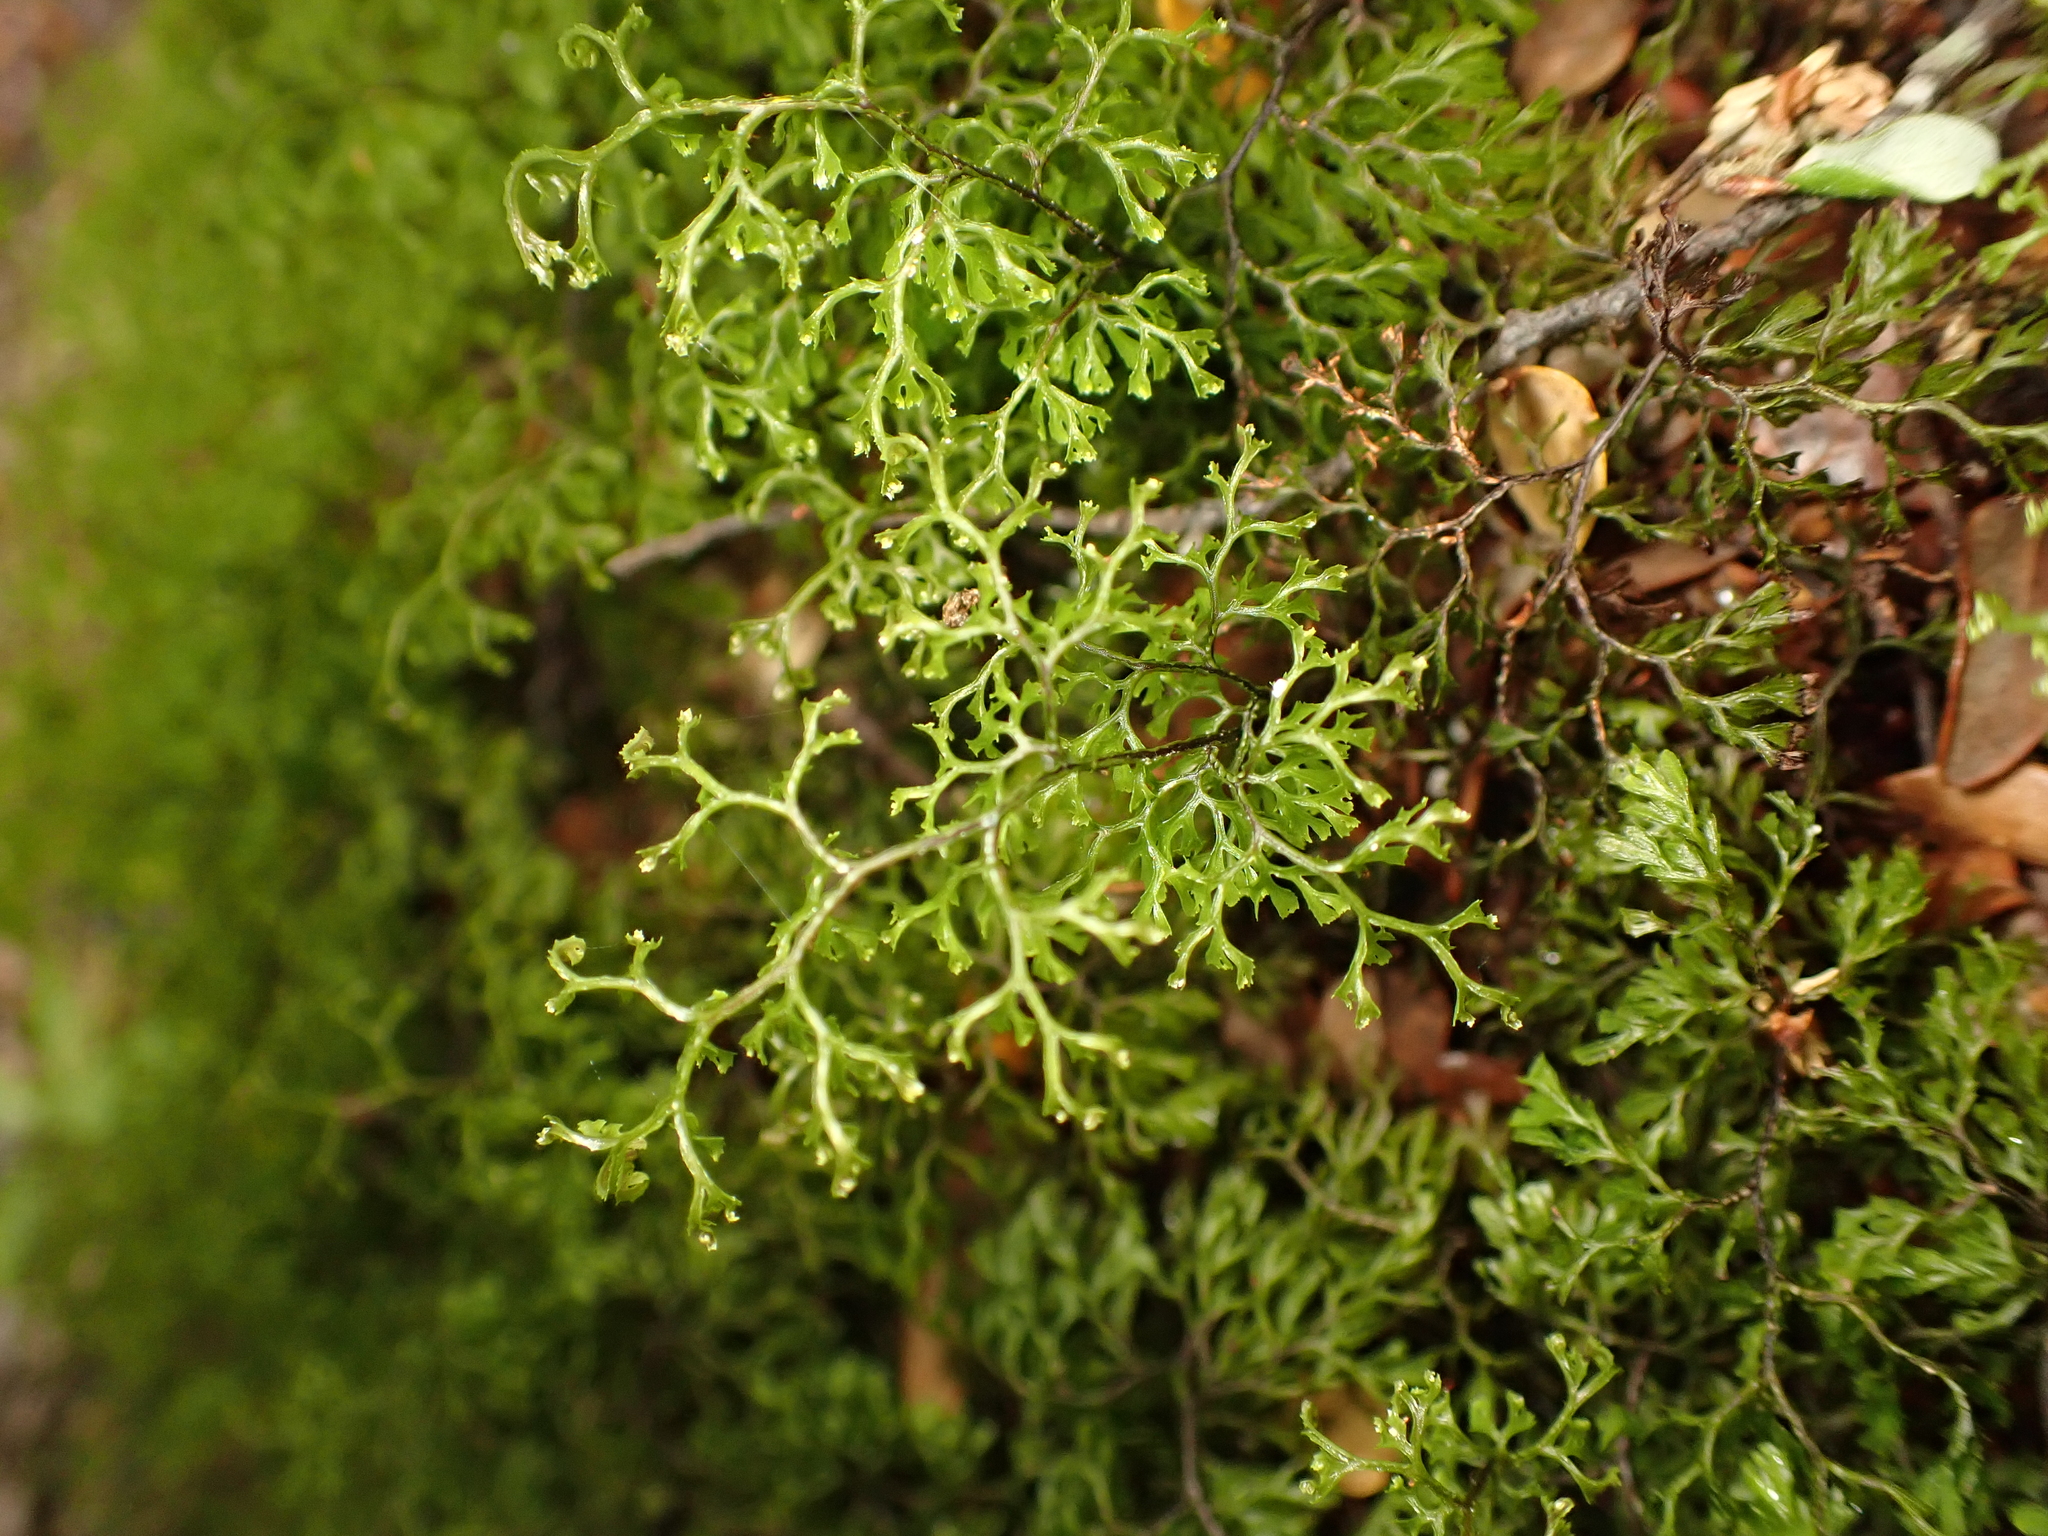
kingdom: Plantae
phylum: Tracheophyta
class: Polypodiopsida
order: Hymenophyllales
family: Hymenophyllaceae
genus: Hymenophyllum
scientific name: Hymenophyllum multifidum
